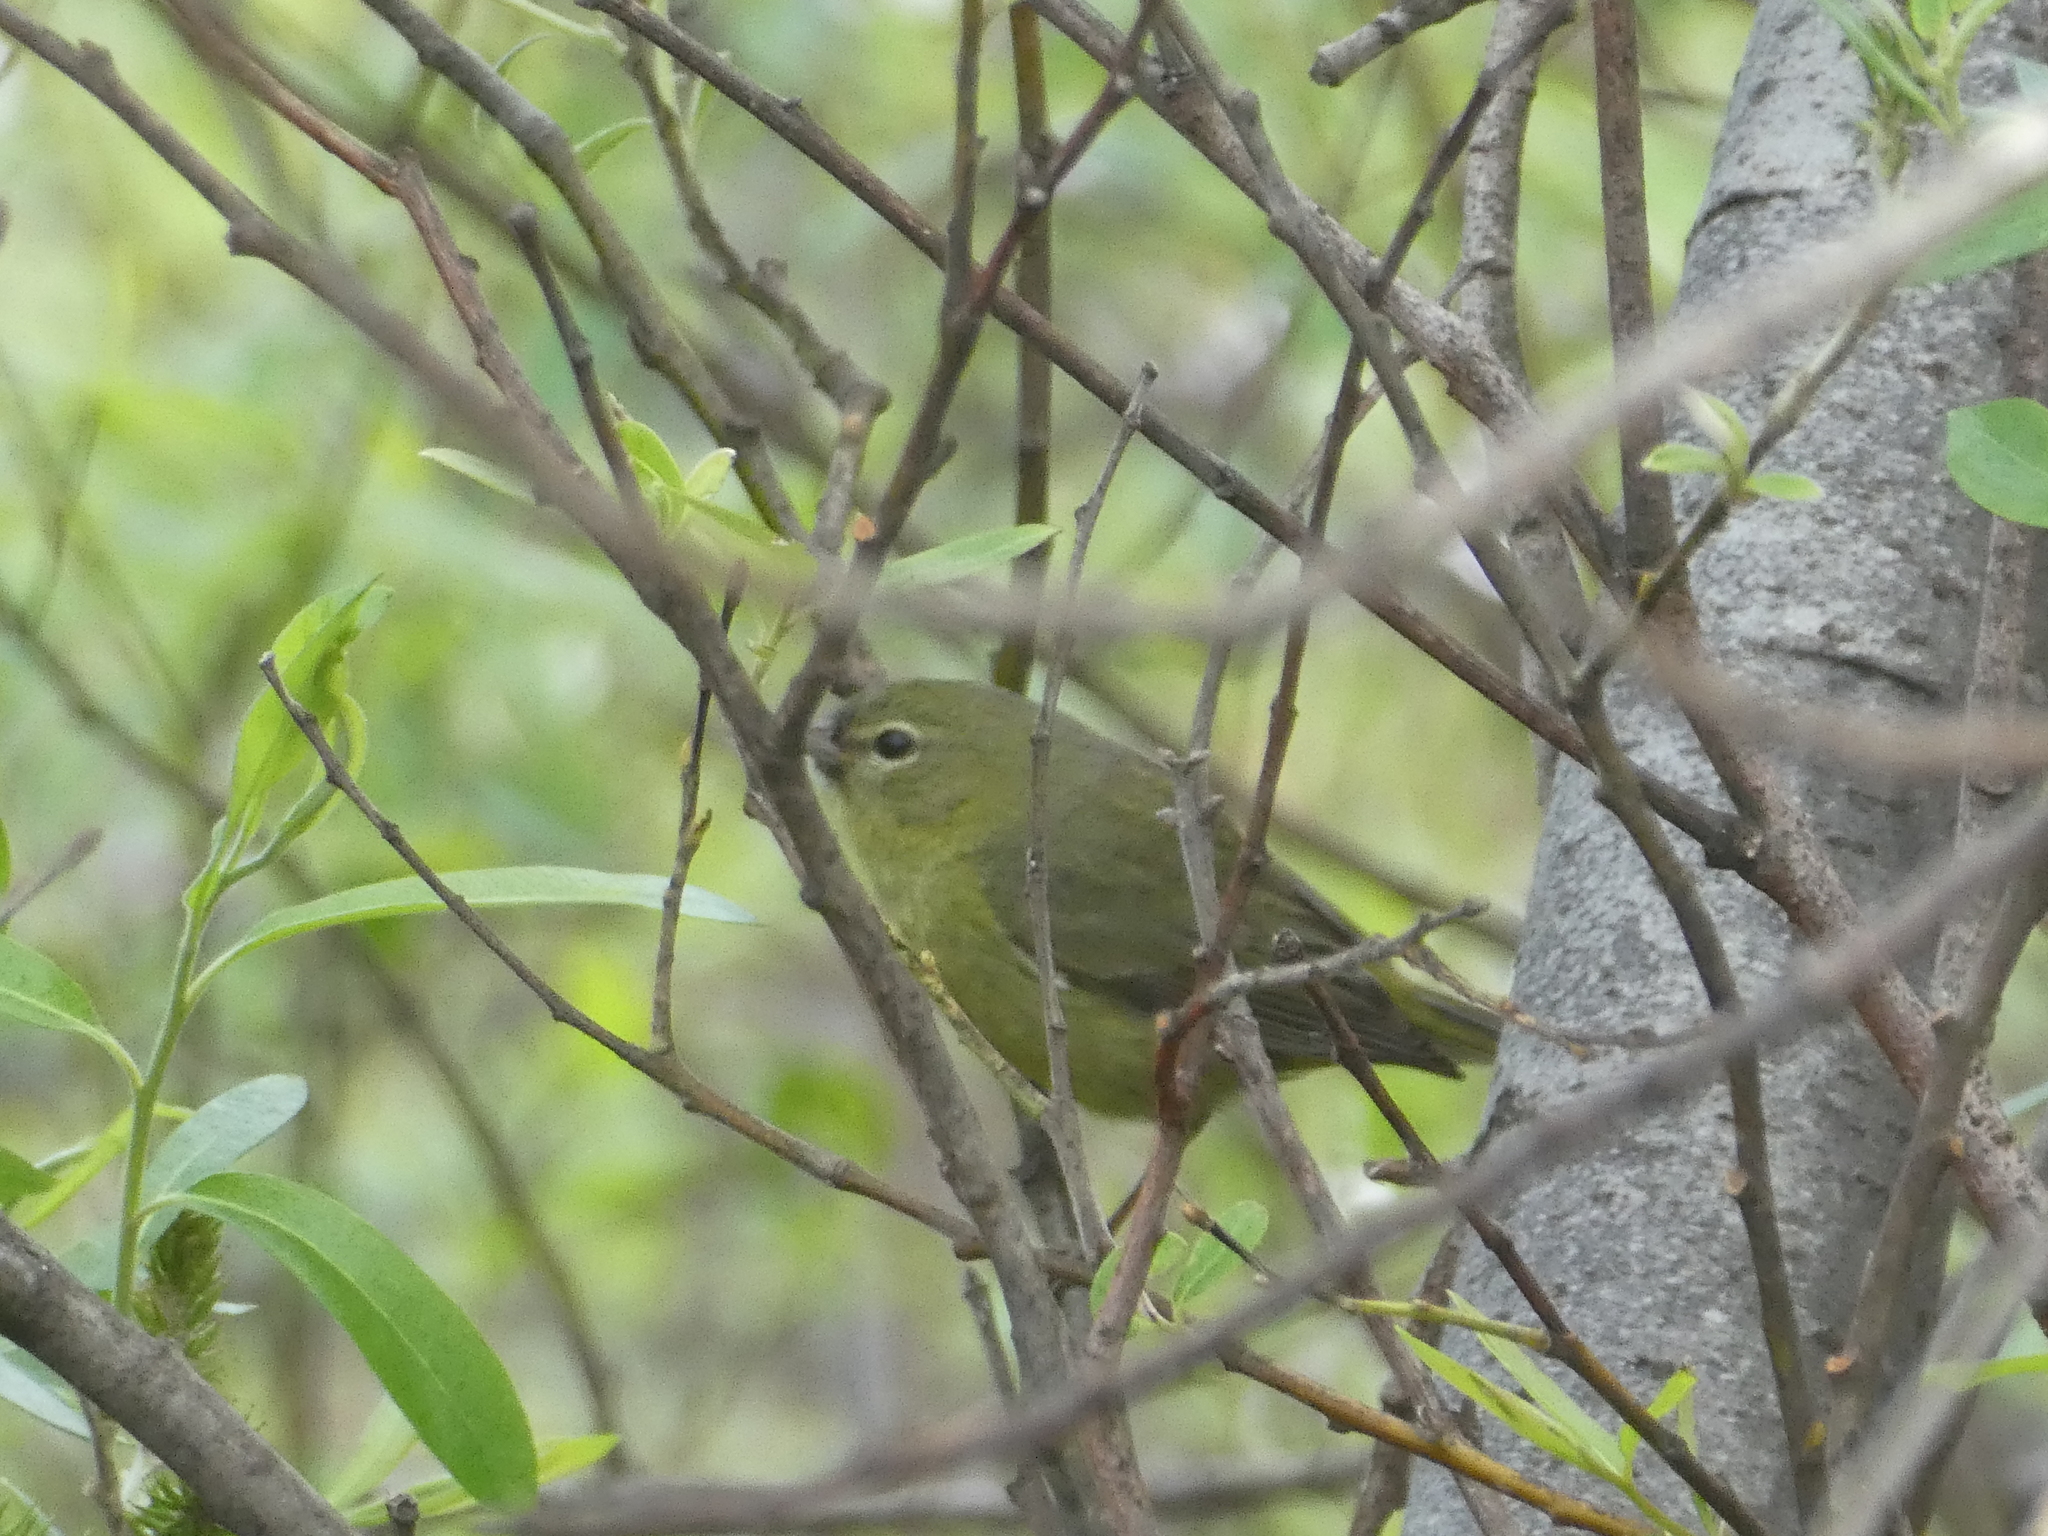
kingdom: Animalia
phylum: Chordata
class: Aves
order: Passeriformes
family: Parulidae
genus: Leiothlypis
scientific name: Leiothlypis celata
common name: Orange-crowned warbler
